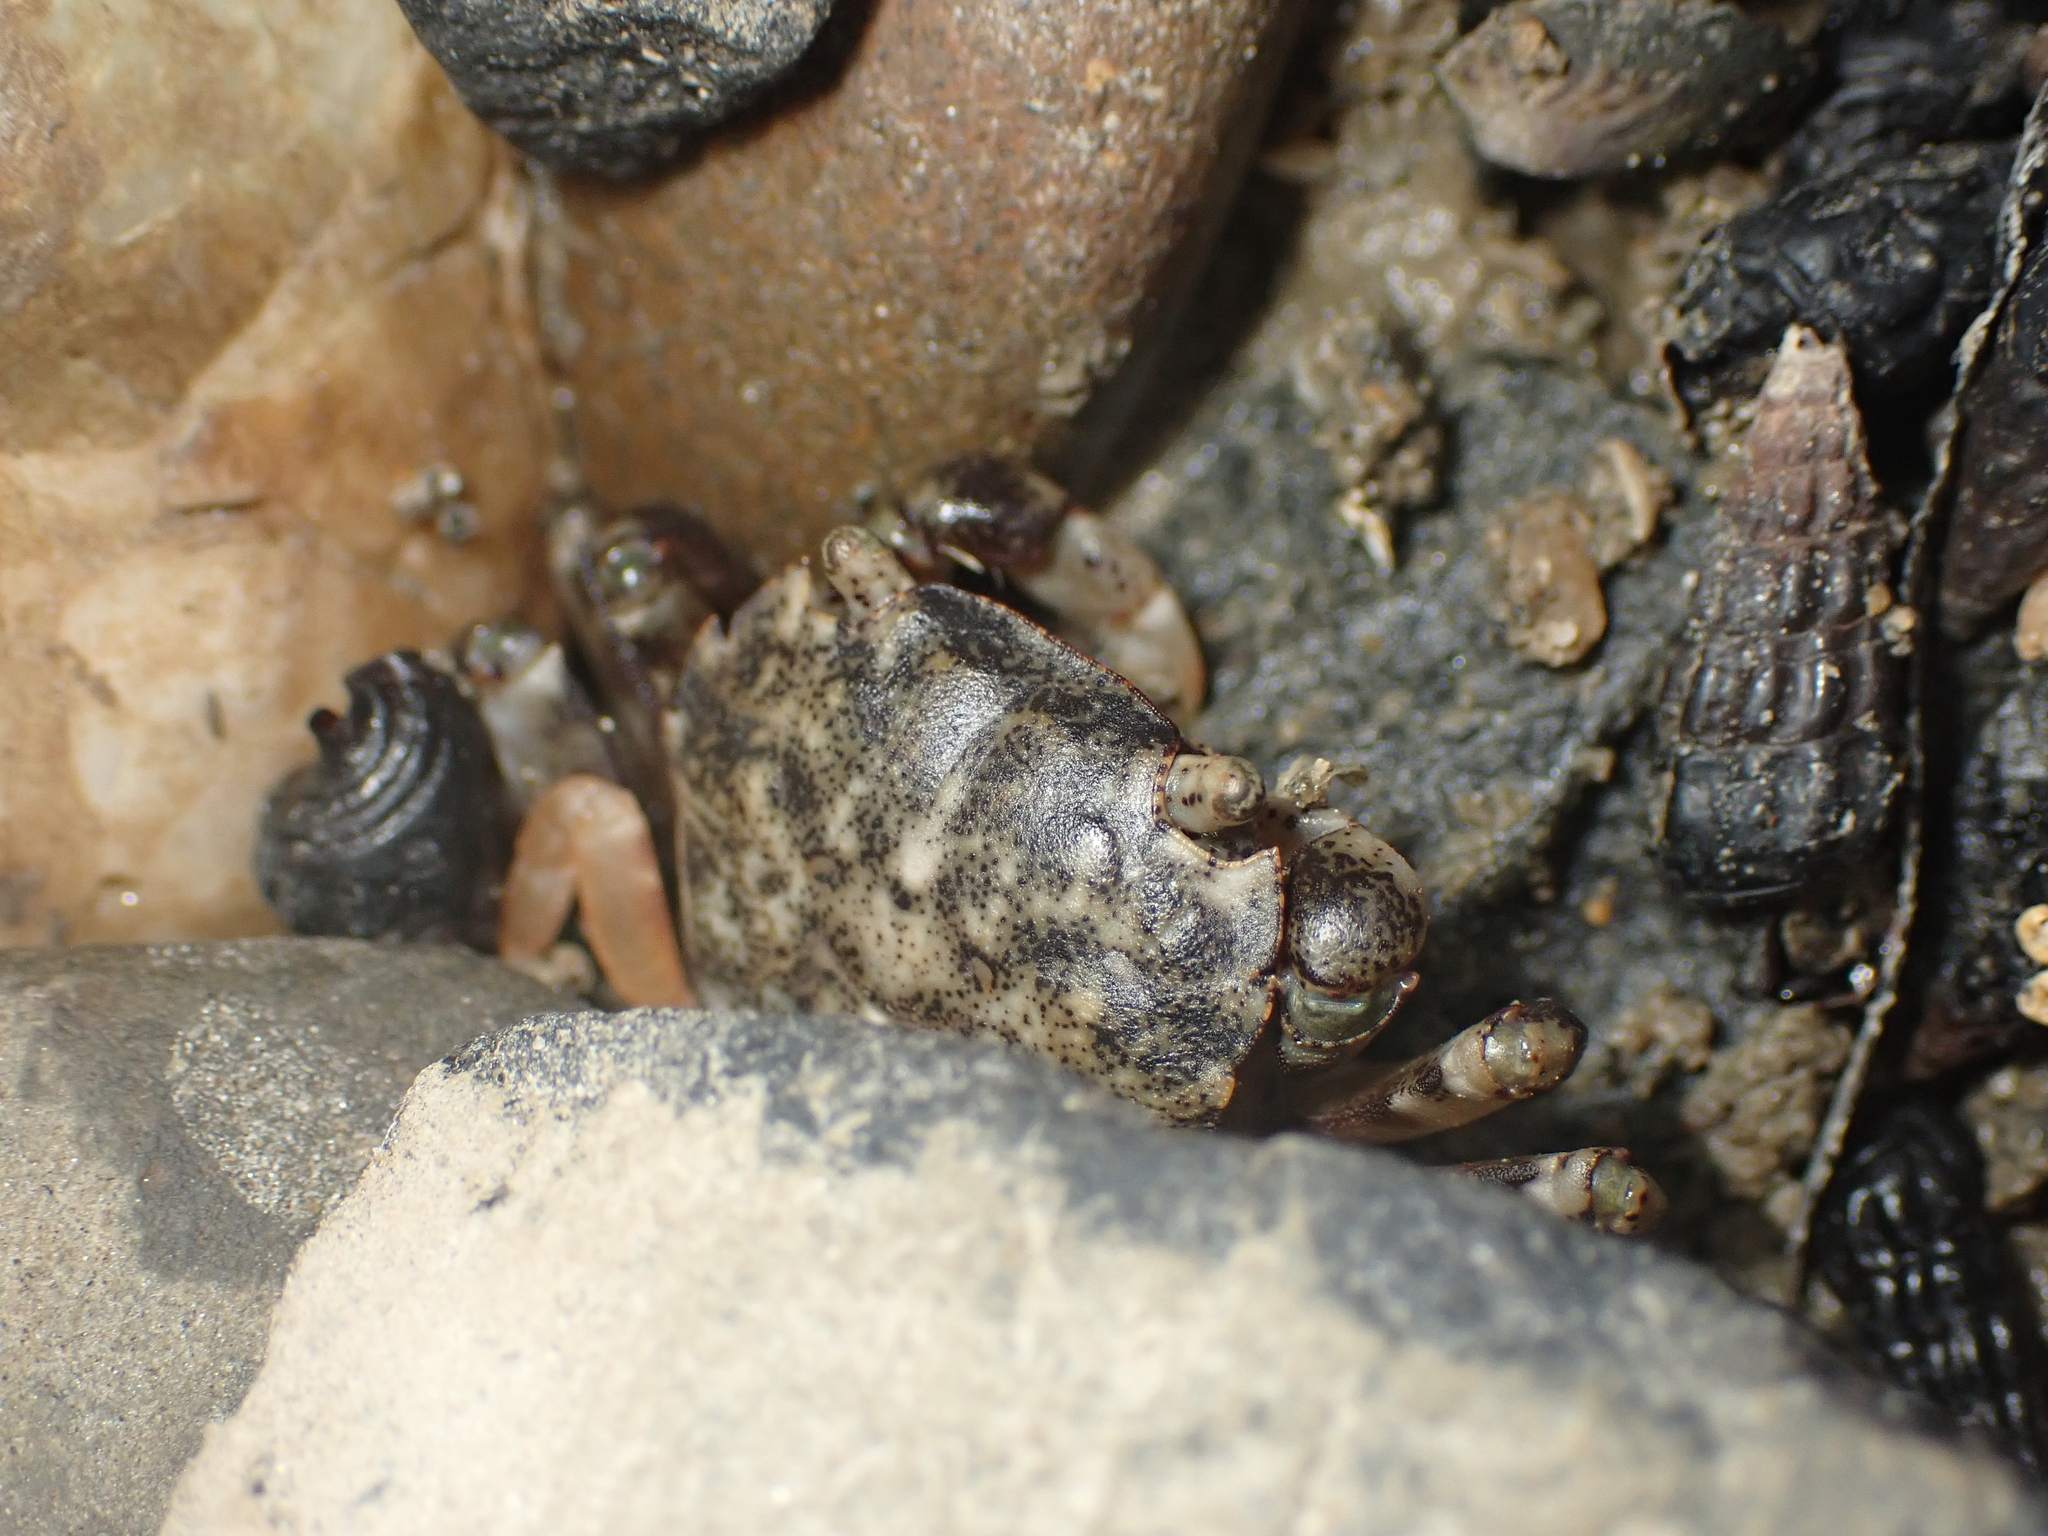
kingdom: Animalia
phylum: Arthropoda
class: Malacostraca
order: Decapoda
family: Varunidae
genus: Hemigrapsus
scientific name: Hemigrapsus sexdentatus
